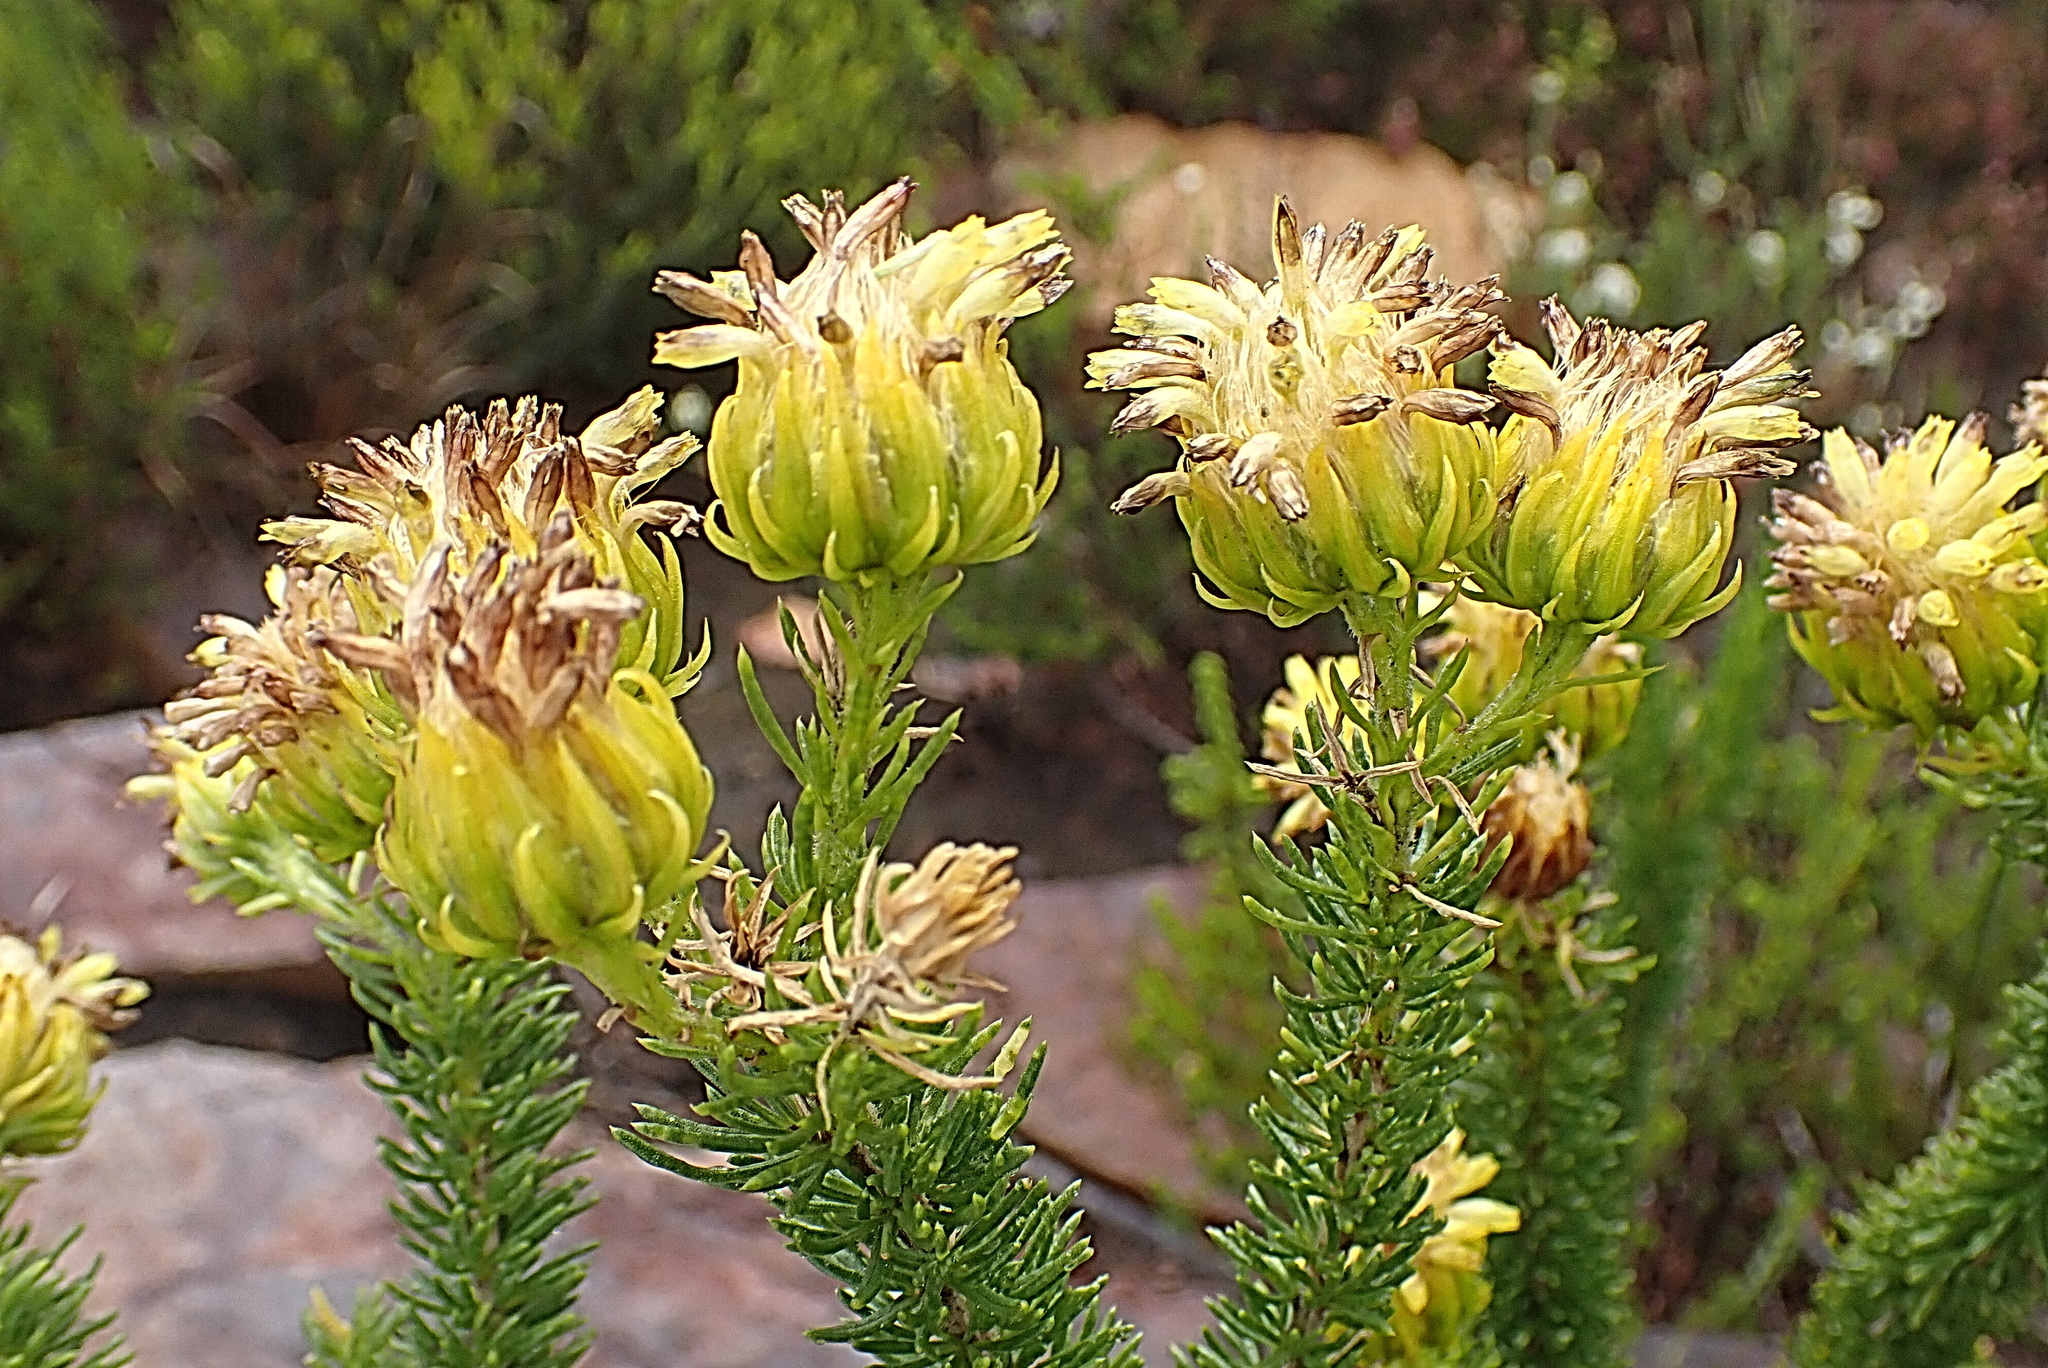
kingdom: Plantae
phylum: Tracheophyta
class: Magnoliopsida
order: Asterales
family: Asteraceae
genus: Pteronia
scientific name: Pteronia camphorata
